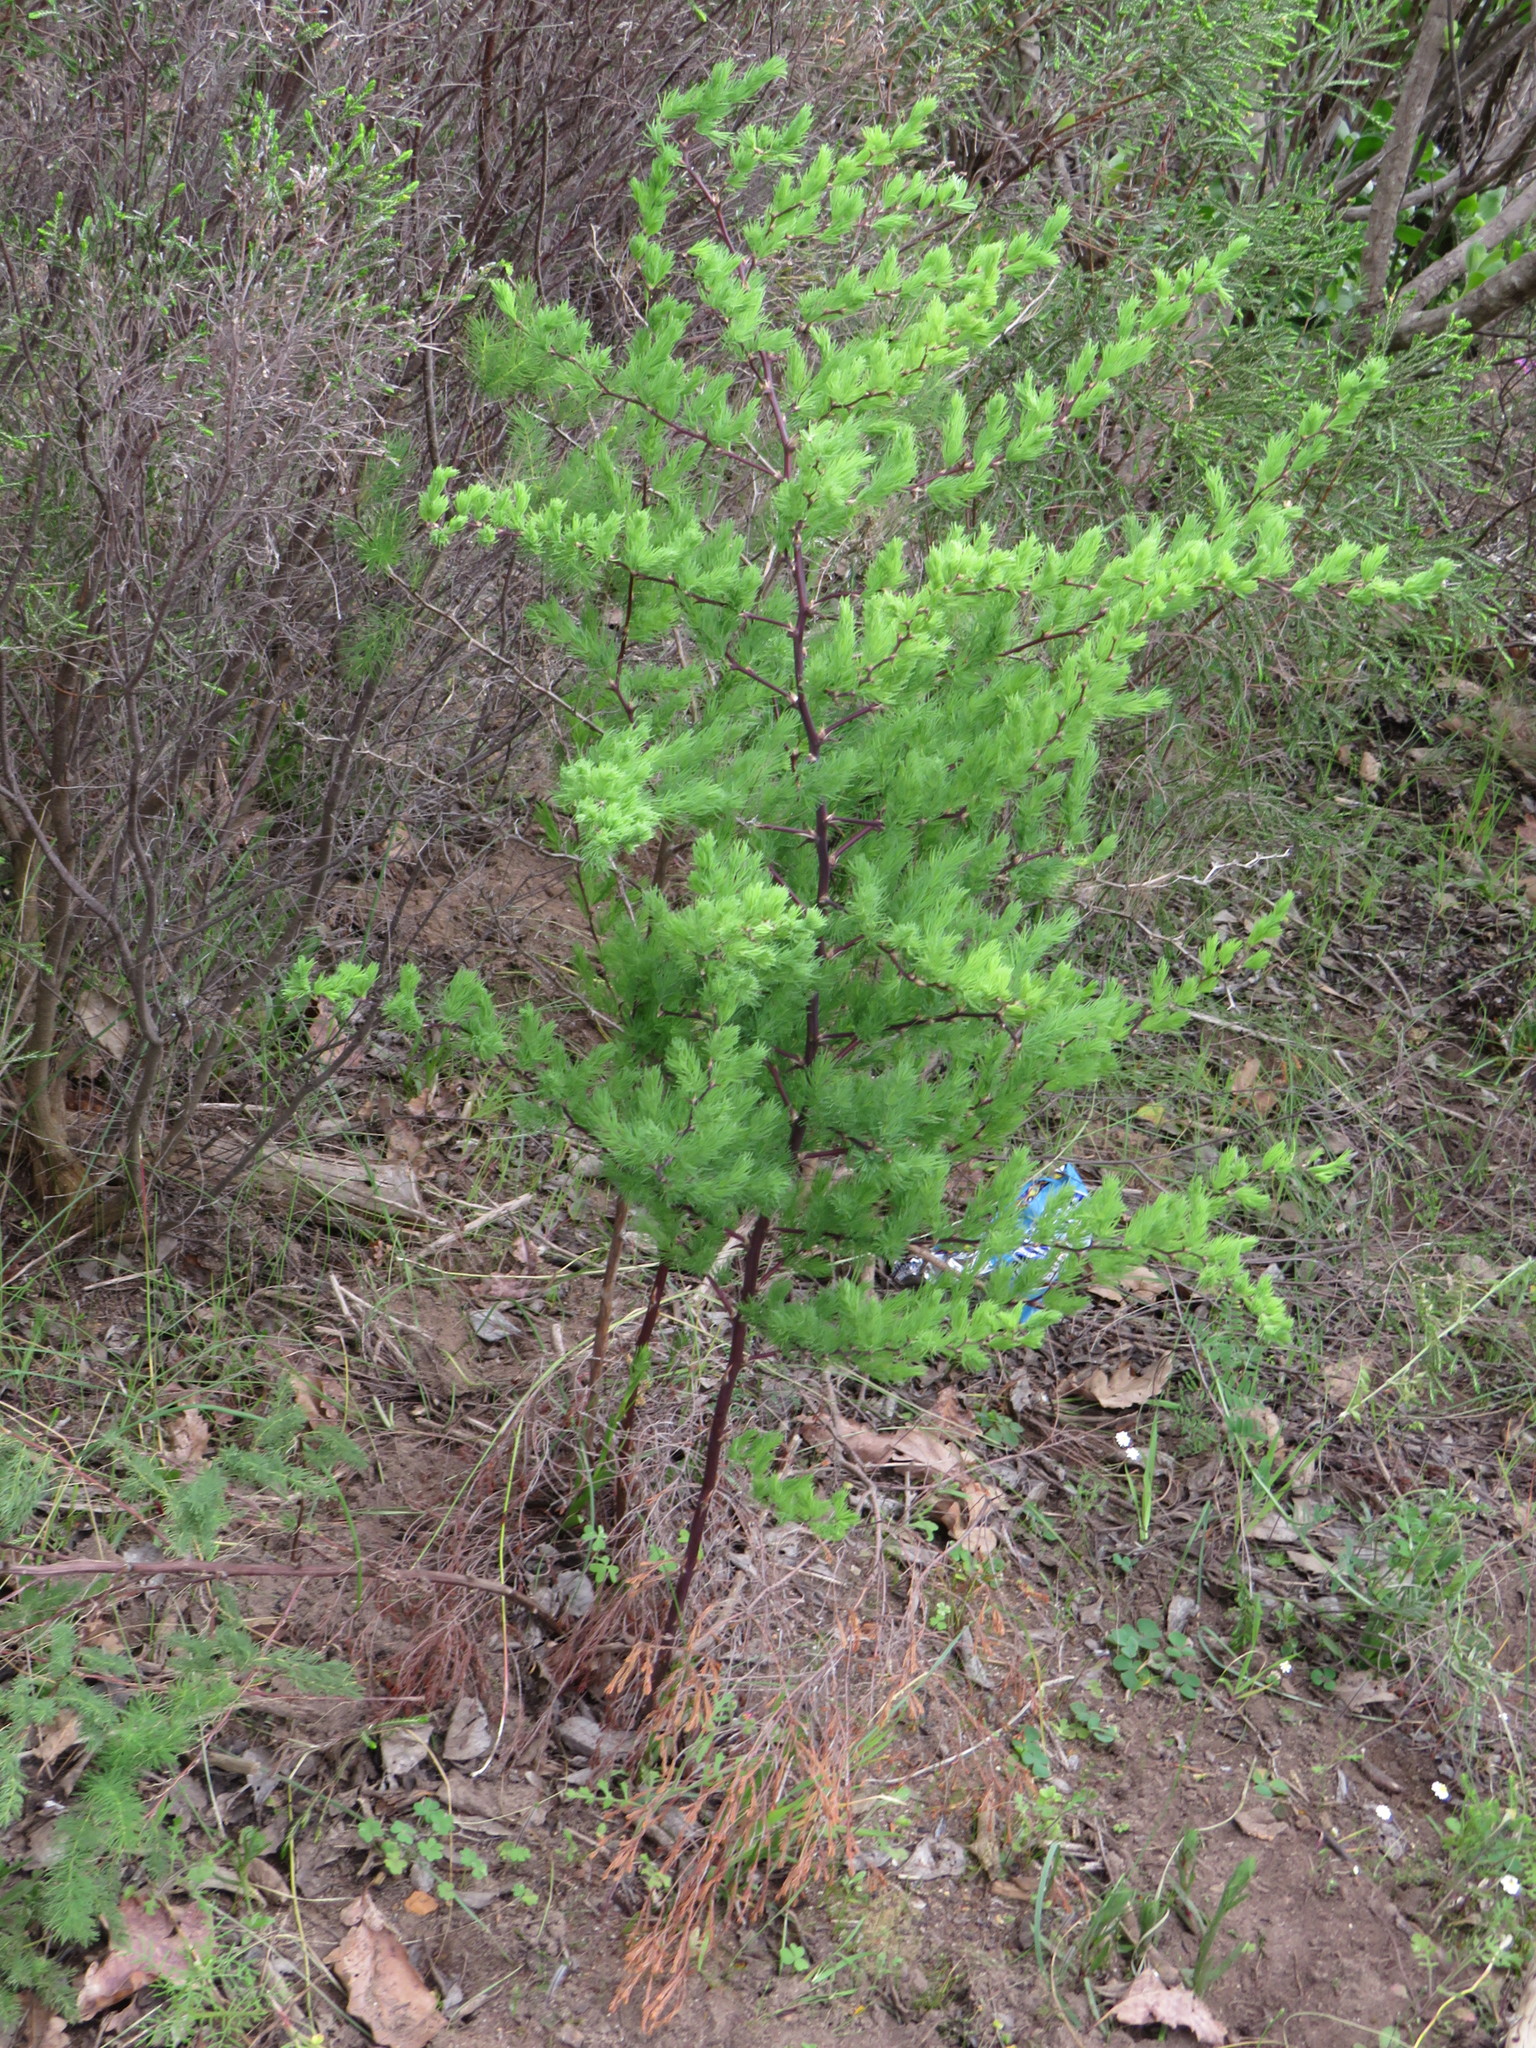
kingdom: Plantae
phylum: Tracheophyta
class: Liliopsida
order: Asparagales
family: Asparagaceae
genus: Asparagus
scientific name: Asparagus rubicundus
